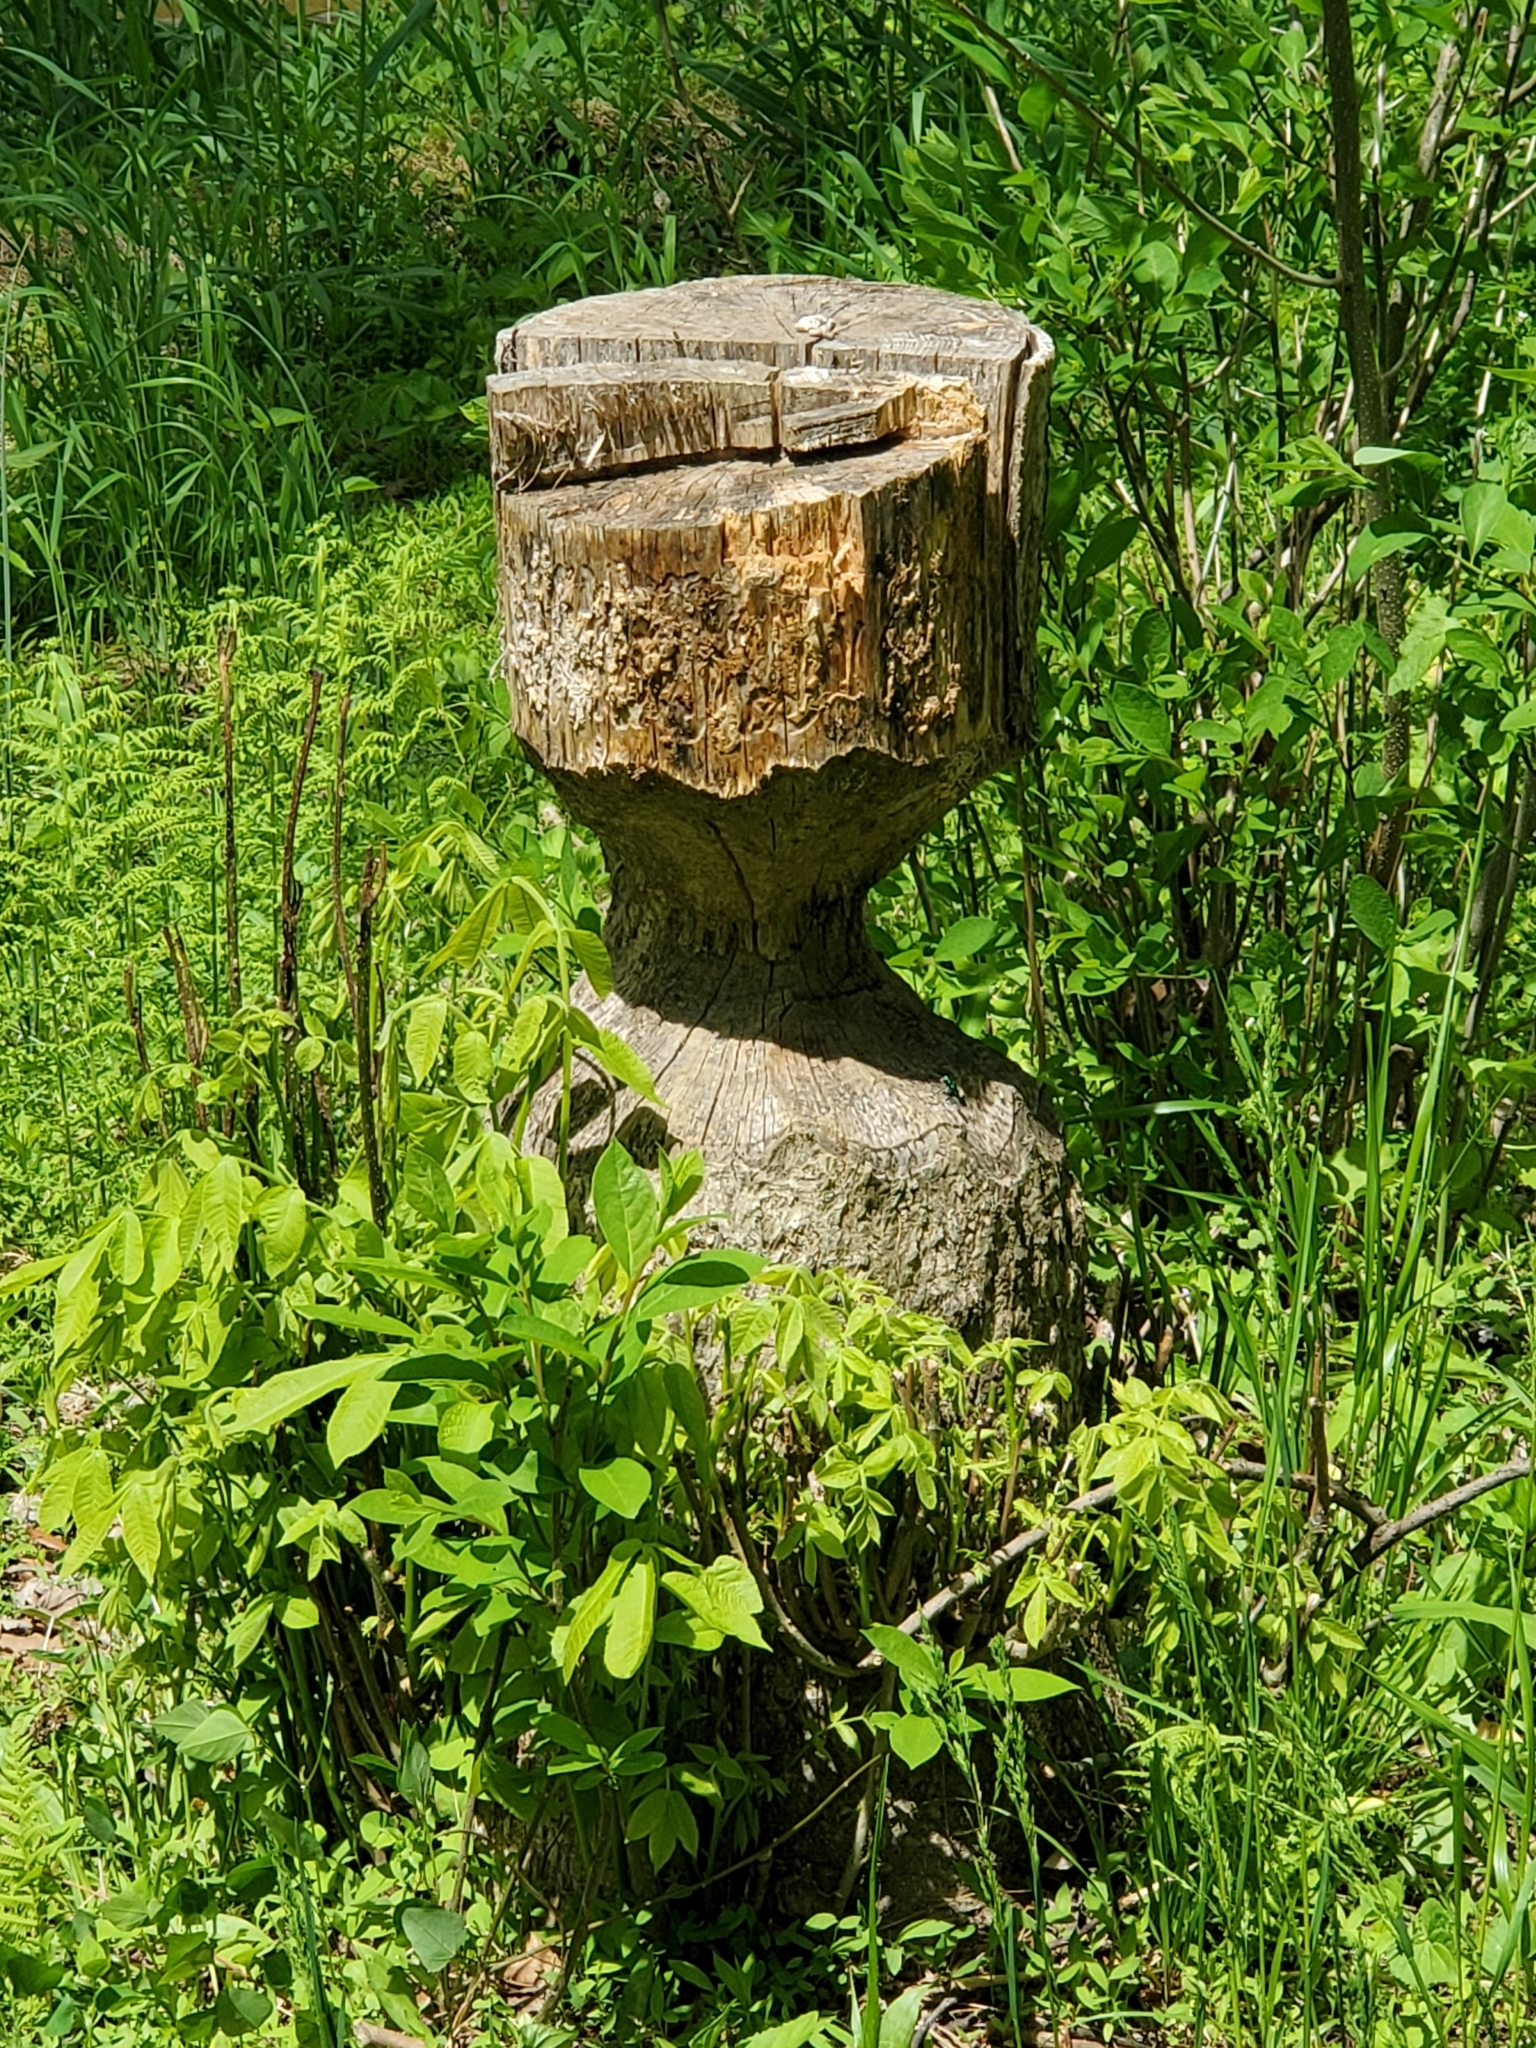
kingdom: Animalia
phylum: Chordata
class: Mammalia
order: Rodentia
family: Castoridae
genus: Castor
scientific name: Castor canadensis
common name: American beaver
